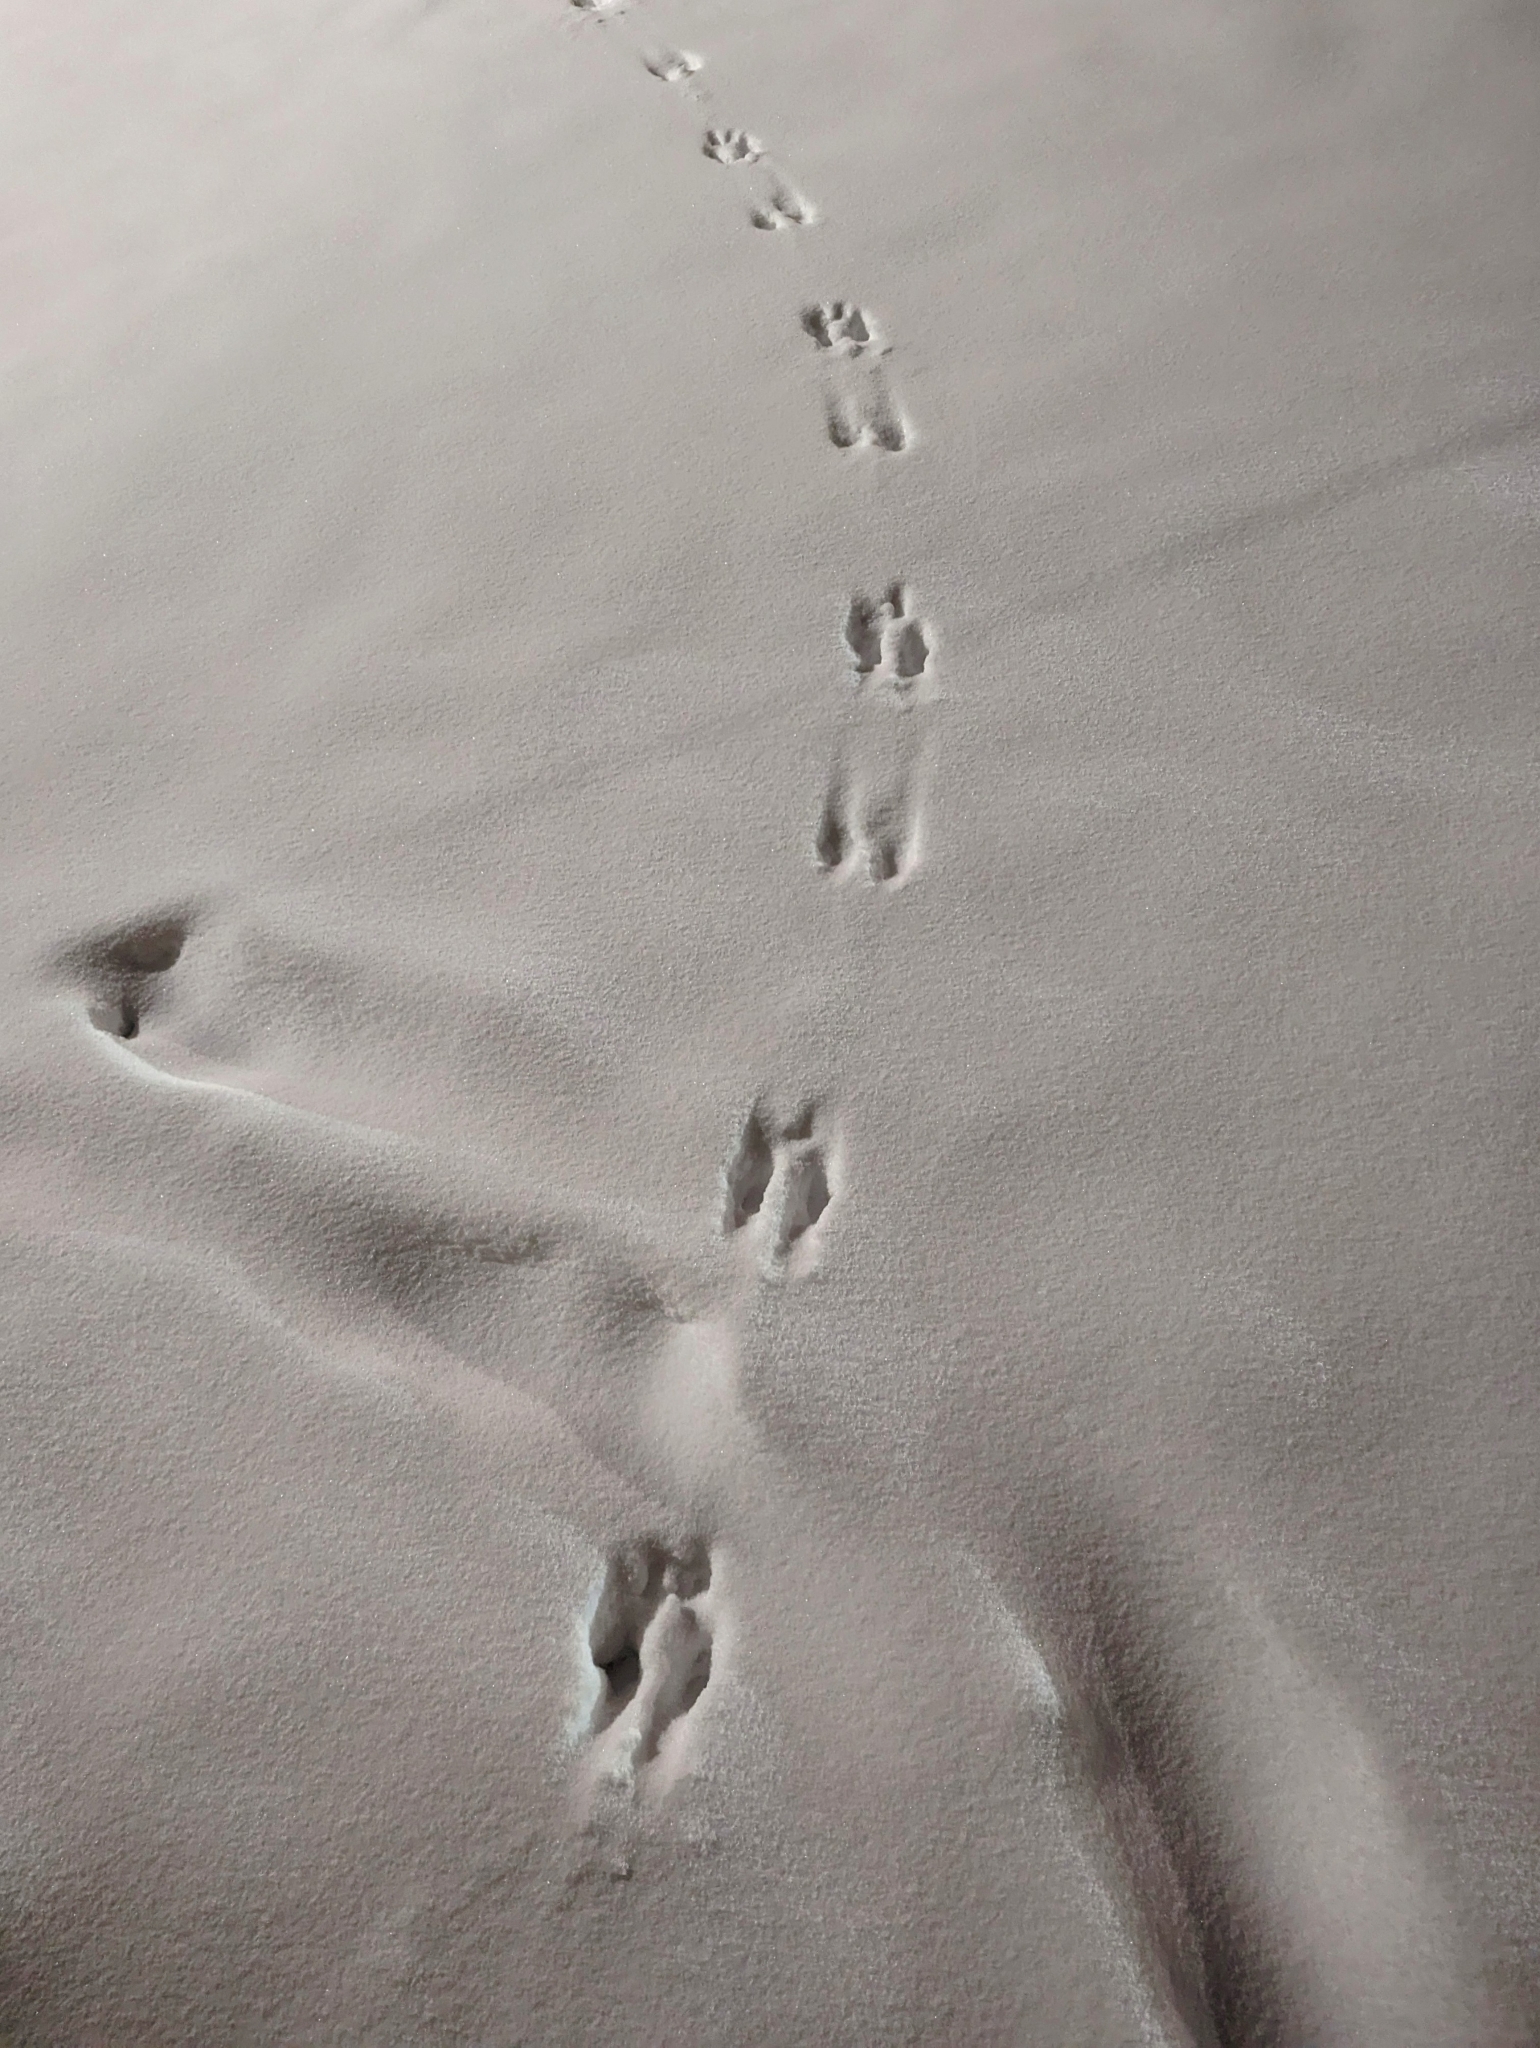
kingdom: Animalia
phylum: Chordata
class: Mammalia
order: Rodentia
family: Sciuridae
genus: Sciurus
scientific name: Sciurus carolinensis
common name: Eastern gray squirrel
